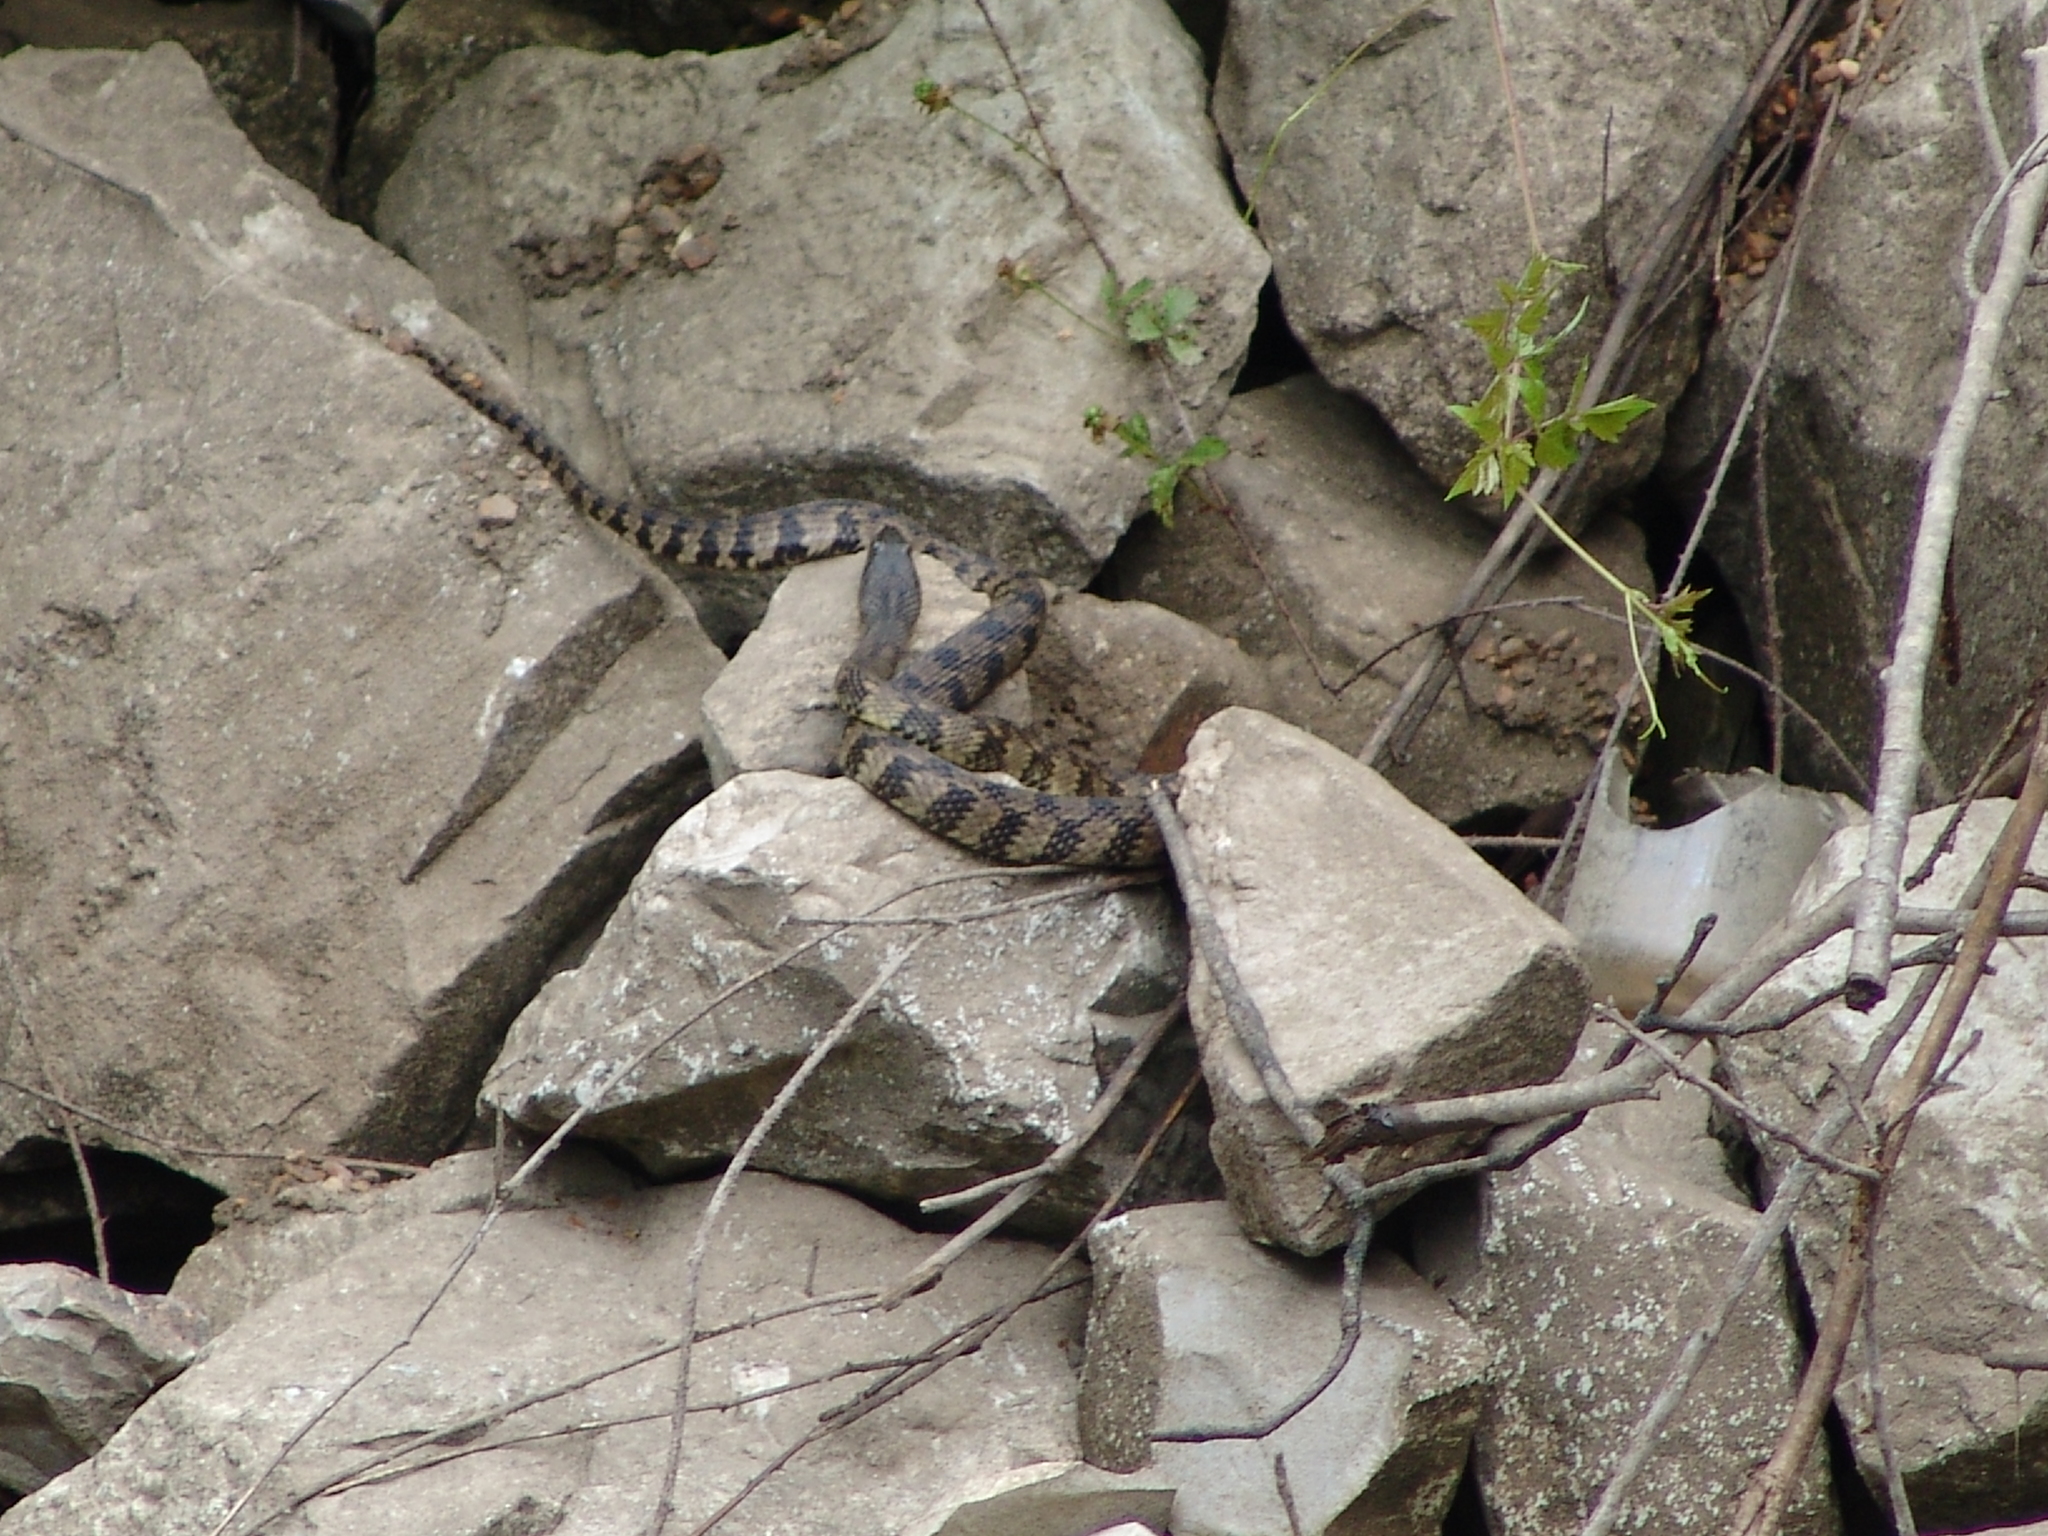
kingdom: Animalia
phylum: Chordata
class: Squamata
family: Colubridae
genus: Nerodia
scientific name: Nerodia rhombifer
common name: Diamondback water snake
